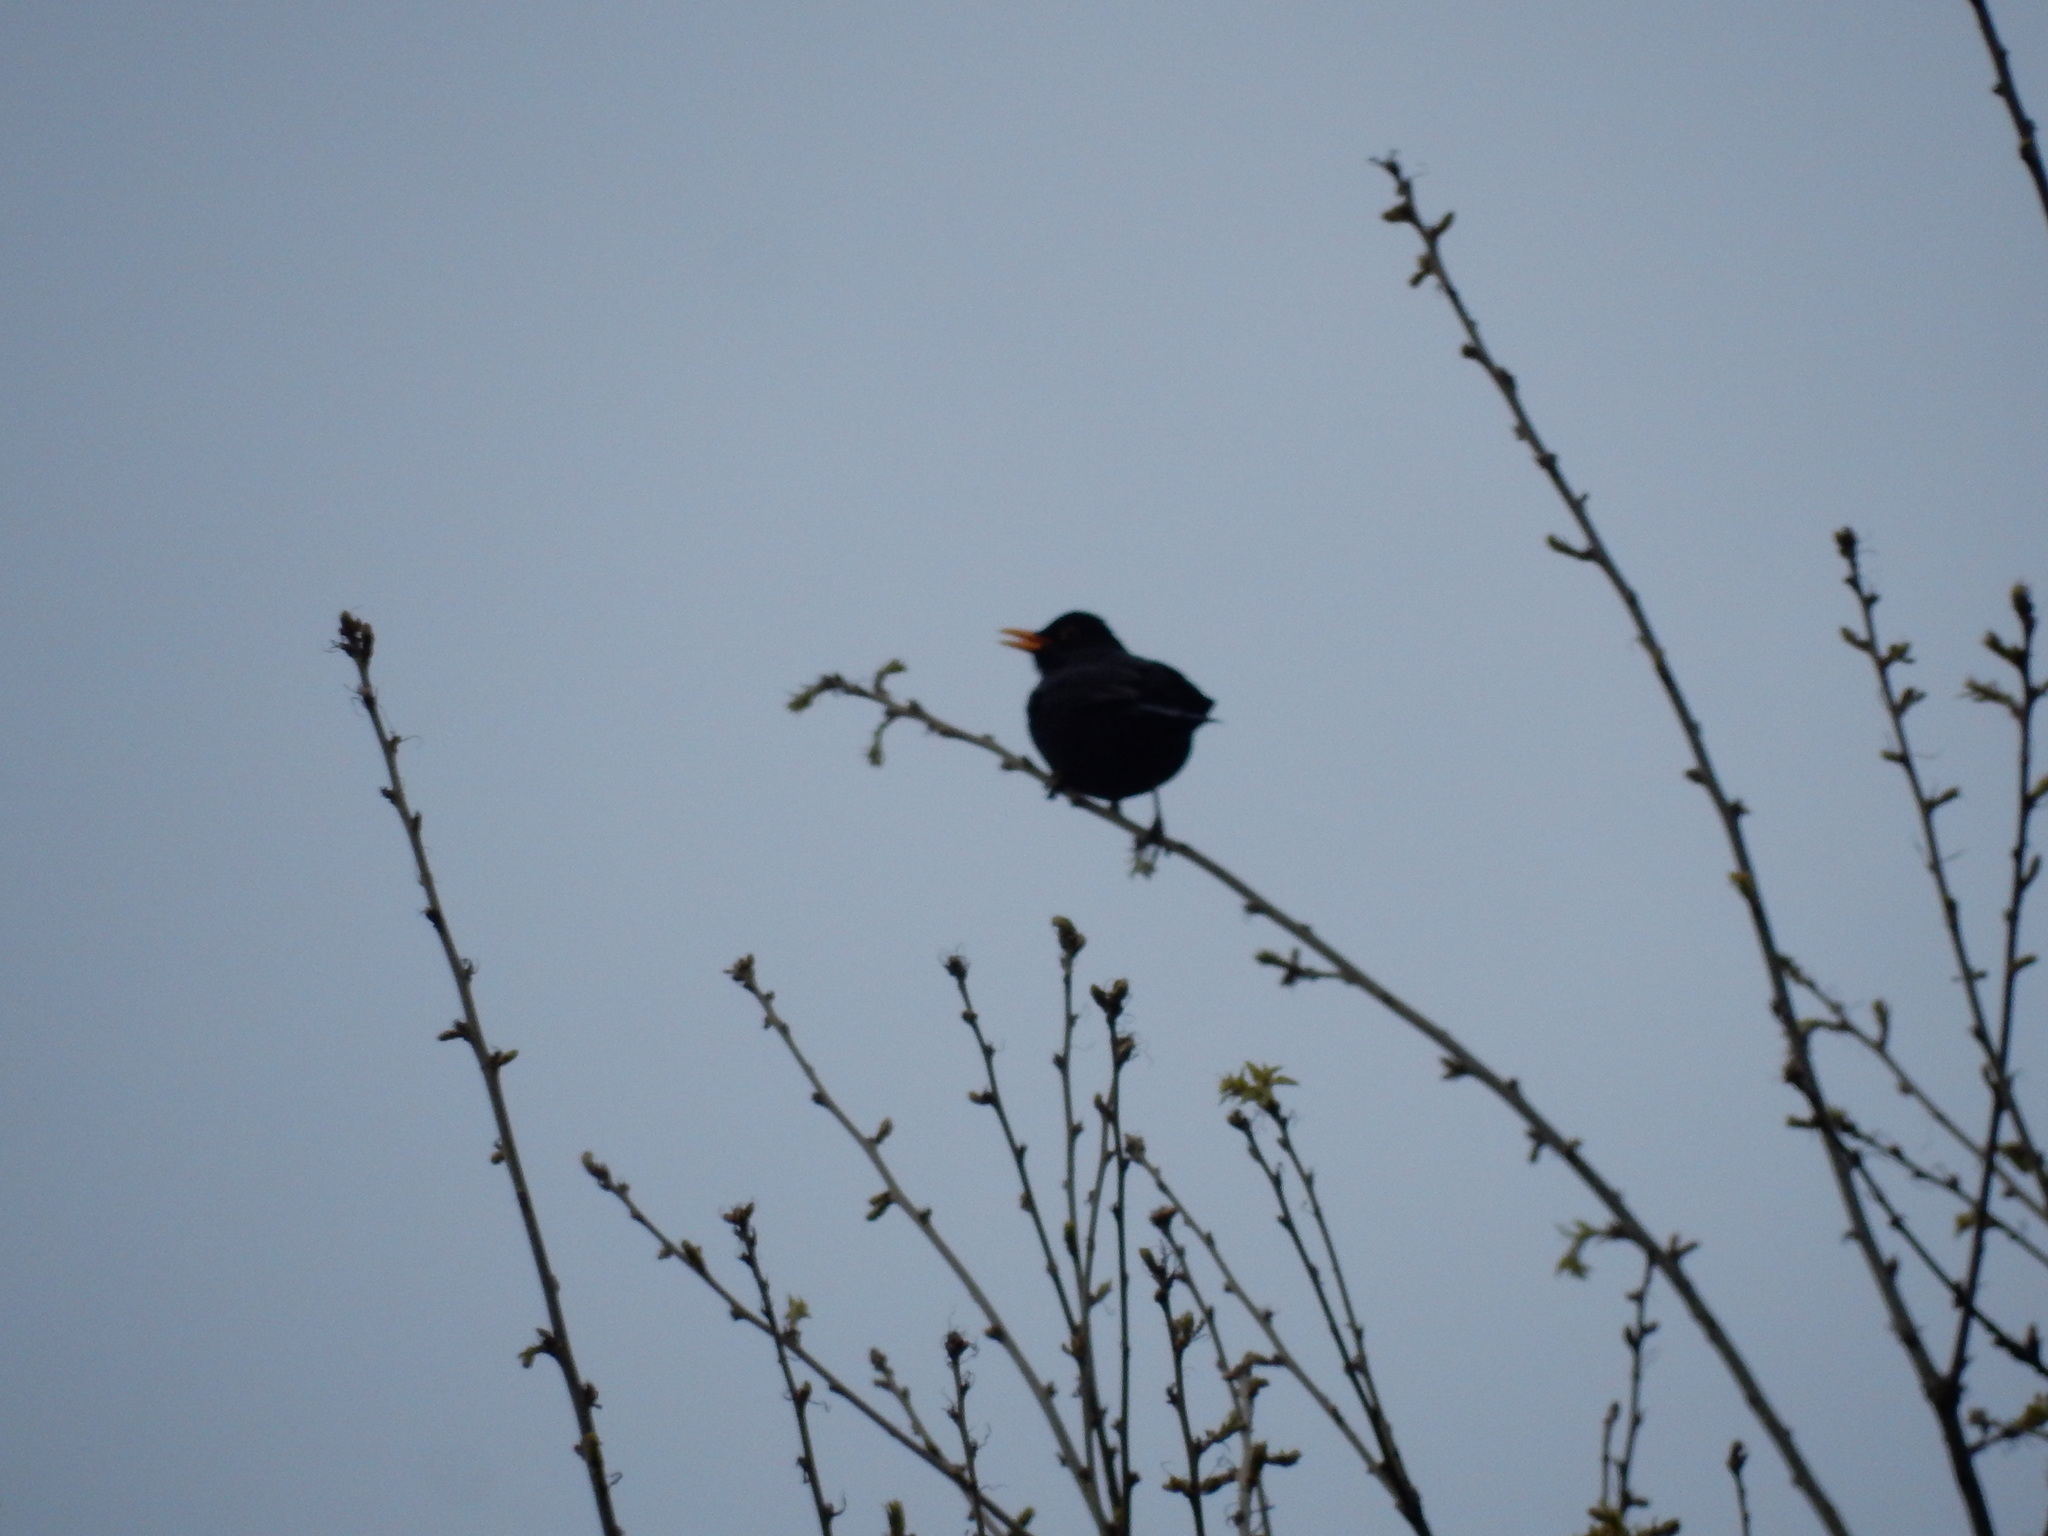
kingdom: Animalia
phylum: Chordata
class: Aves
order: Passeriformes
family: Turdidae
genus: Turdus
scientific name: Turdus merula
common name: Common blackbird
